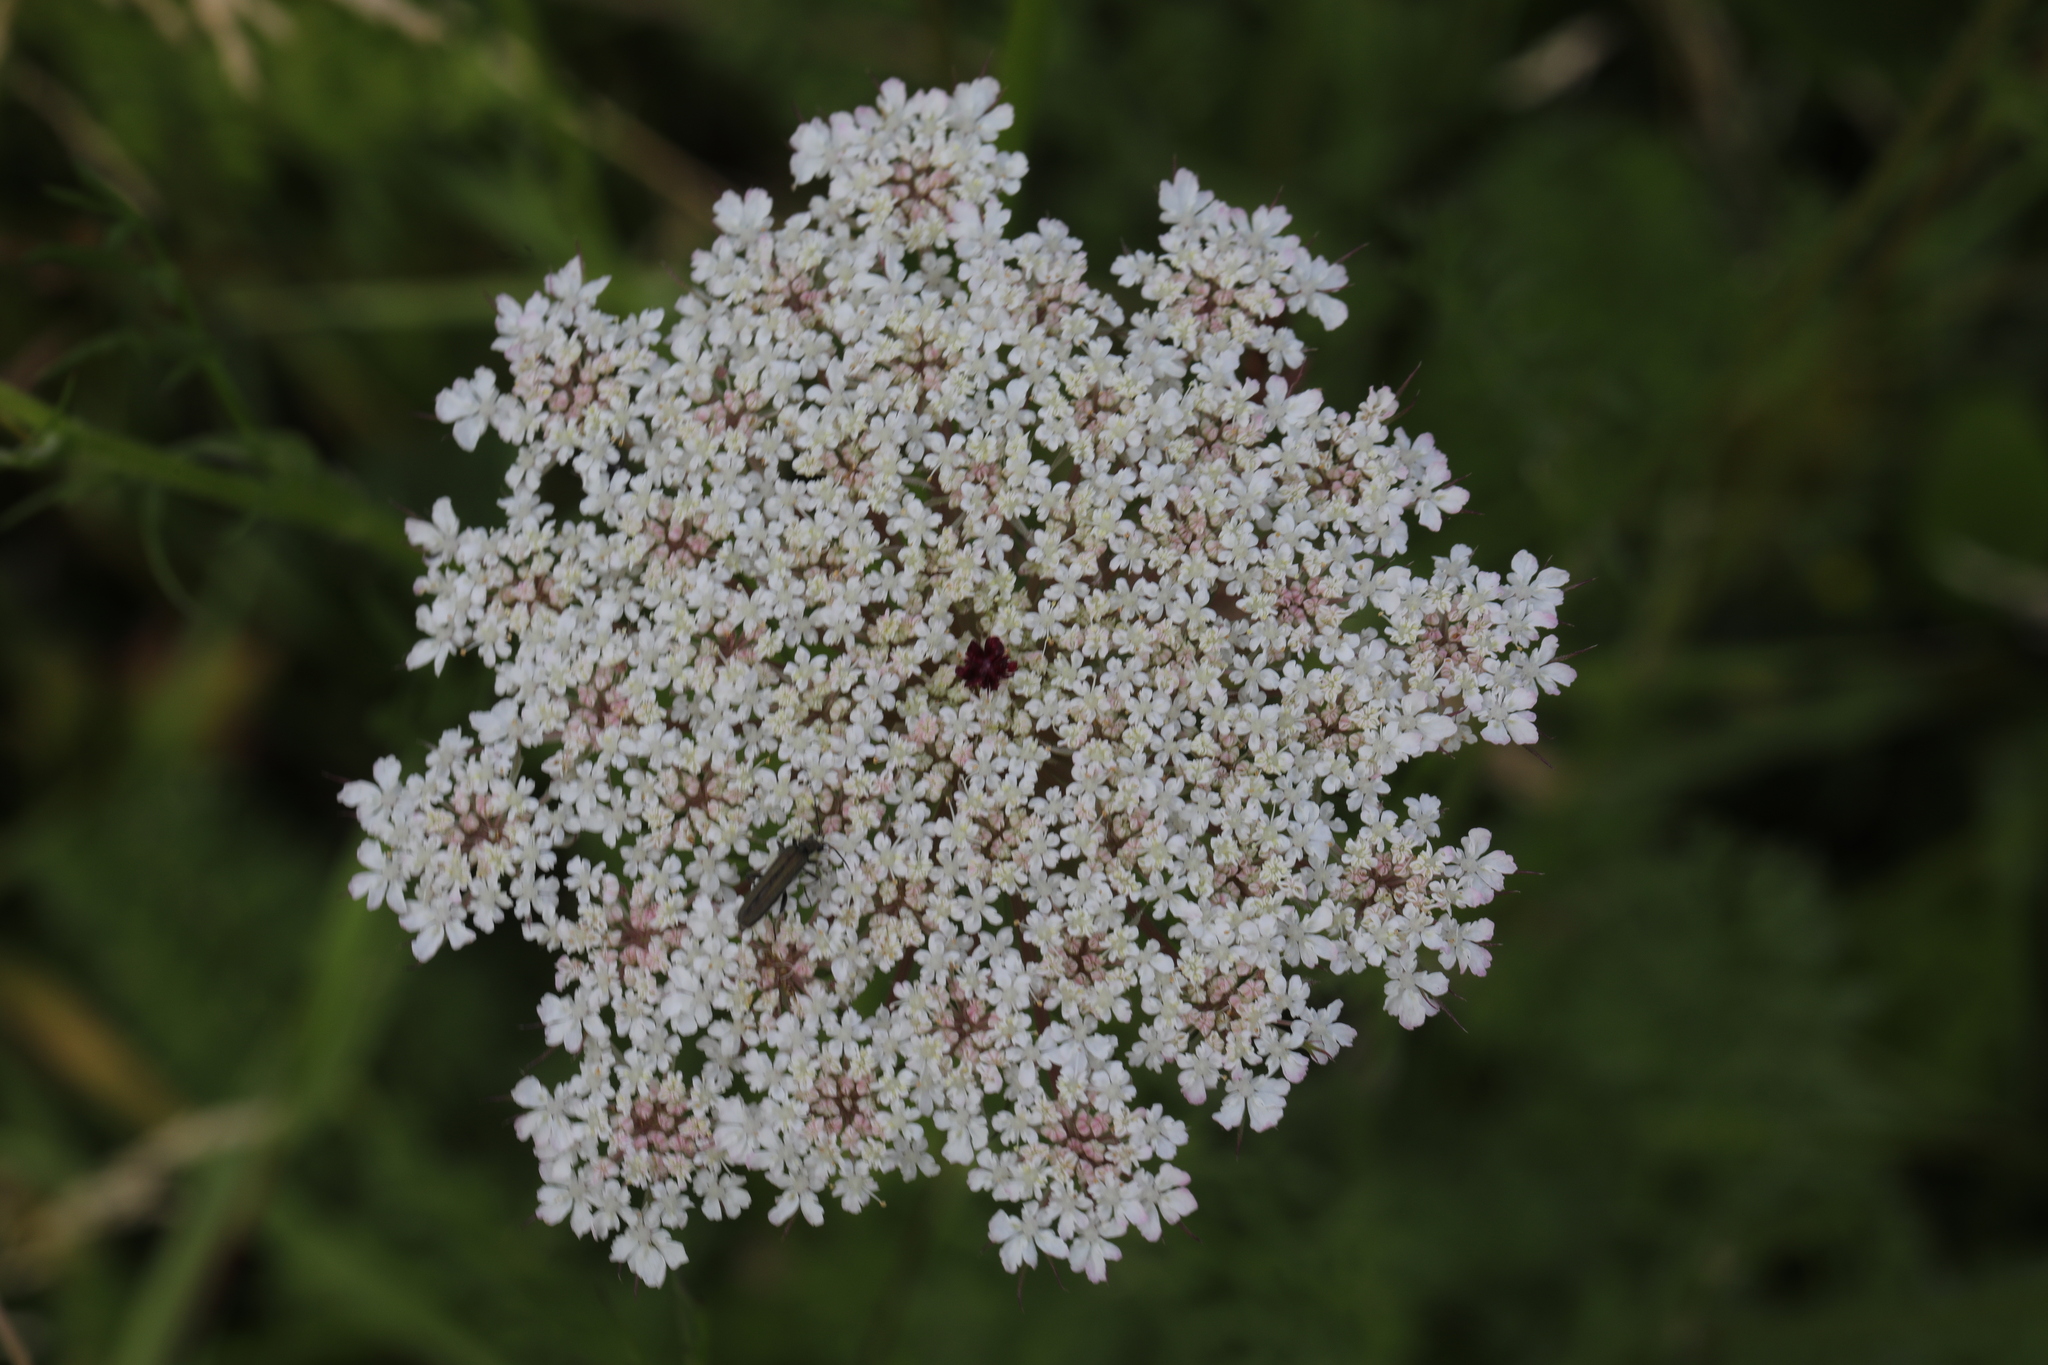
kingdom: Plantae
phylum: Tracheophyta
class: Magnoliopsida
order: Apiales
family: Apiaceae
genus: Daucus
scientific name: Daucus carota
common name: Wild carrot
